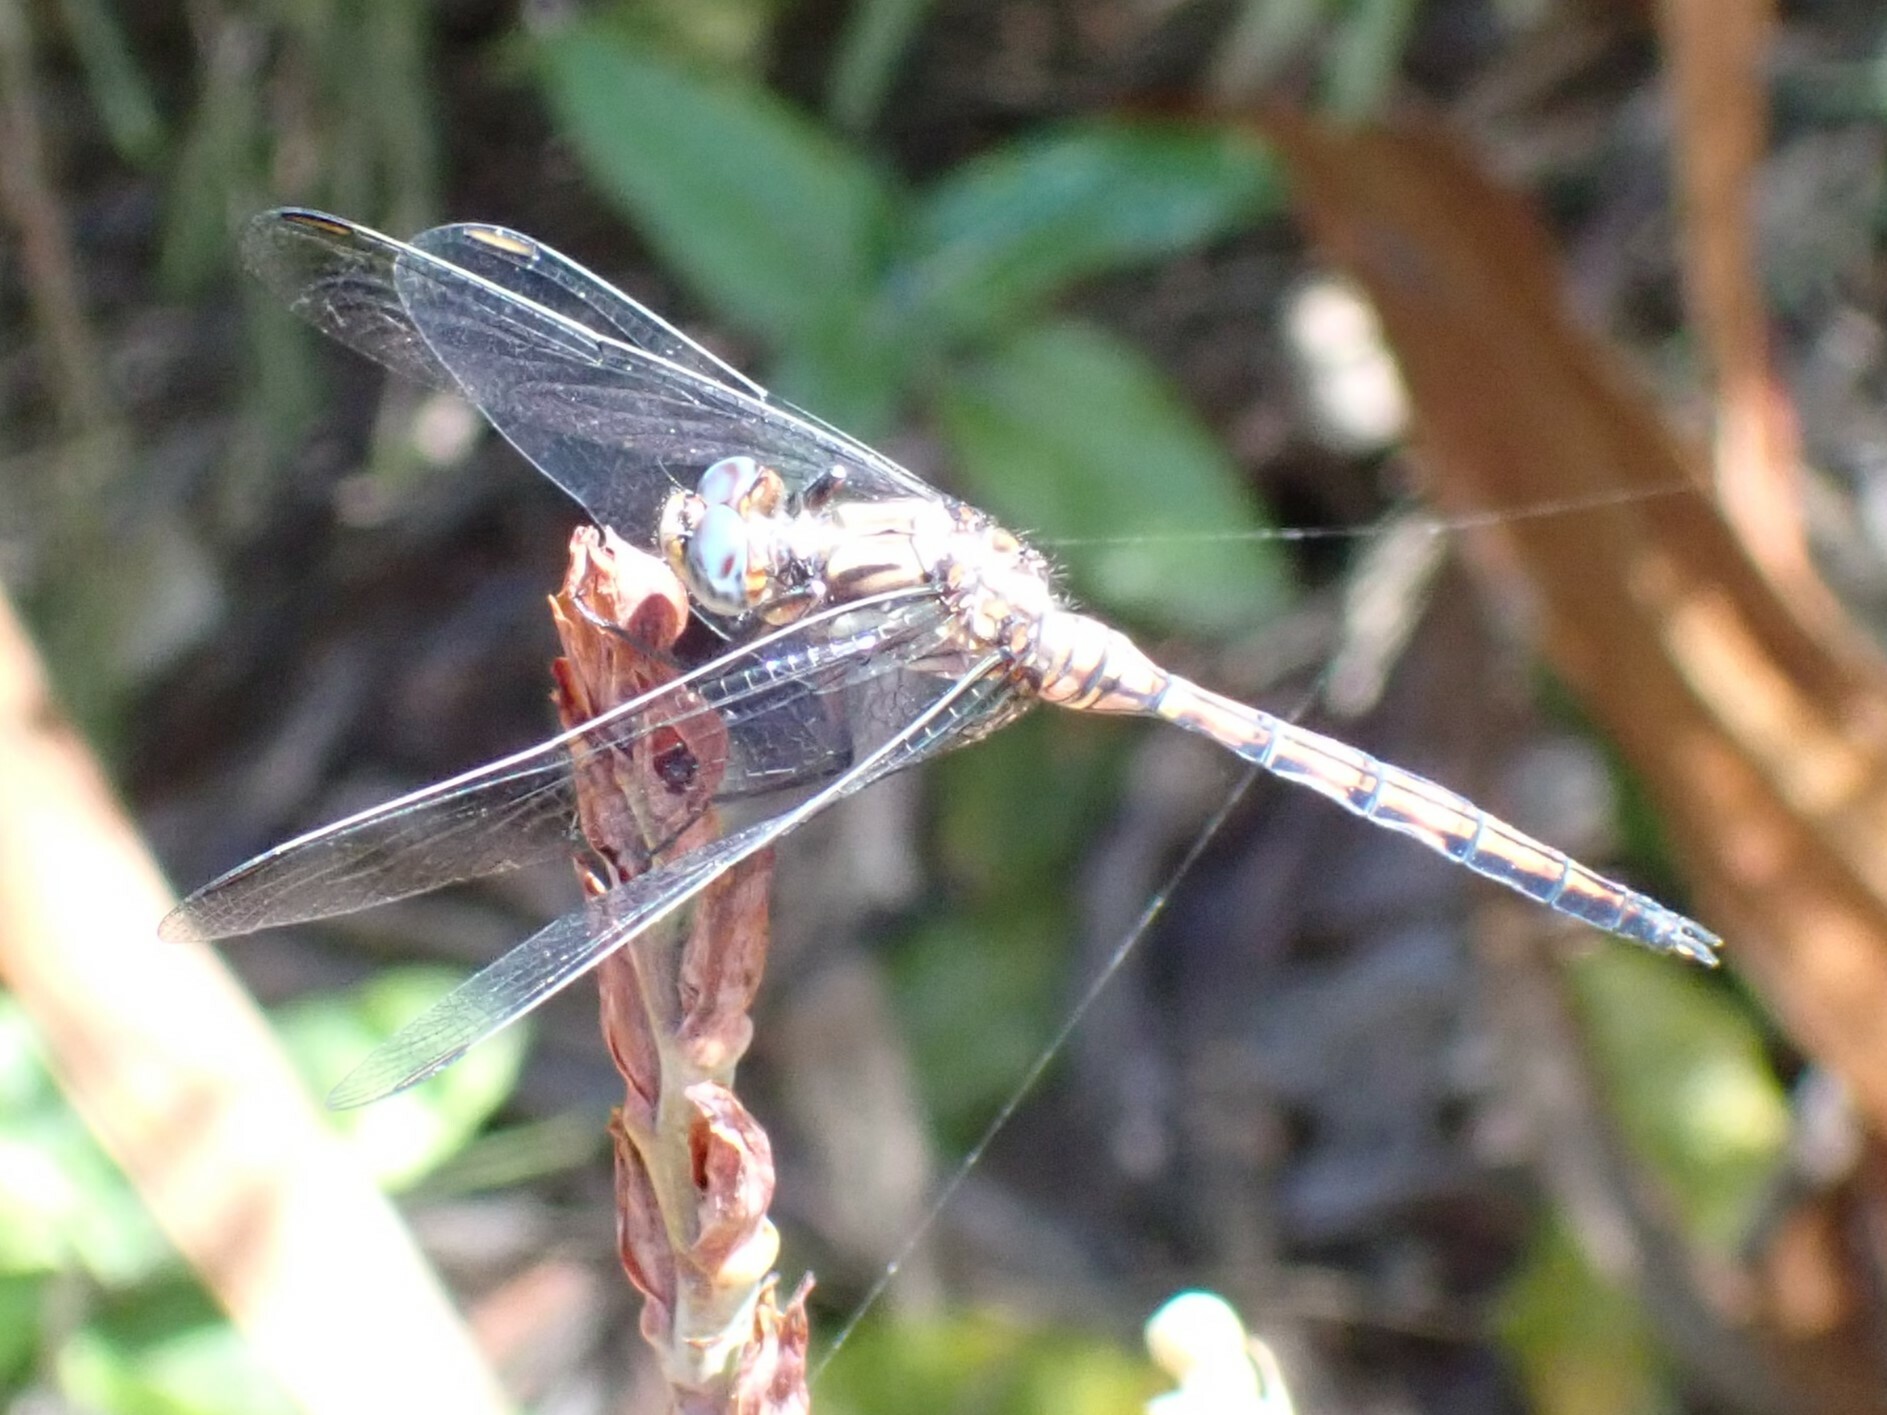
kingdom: Animalia
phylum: Arthropoda
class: Insecta
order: Odonata
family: Libellulidae
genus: Orthetrum
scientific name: Orthetrum julia
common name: Julia skimmer
